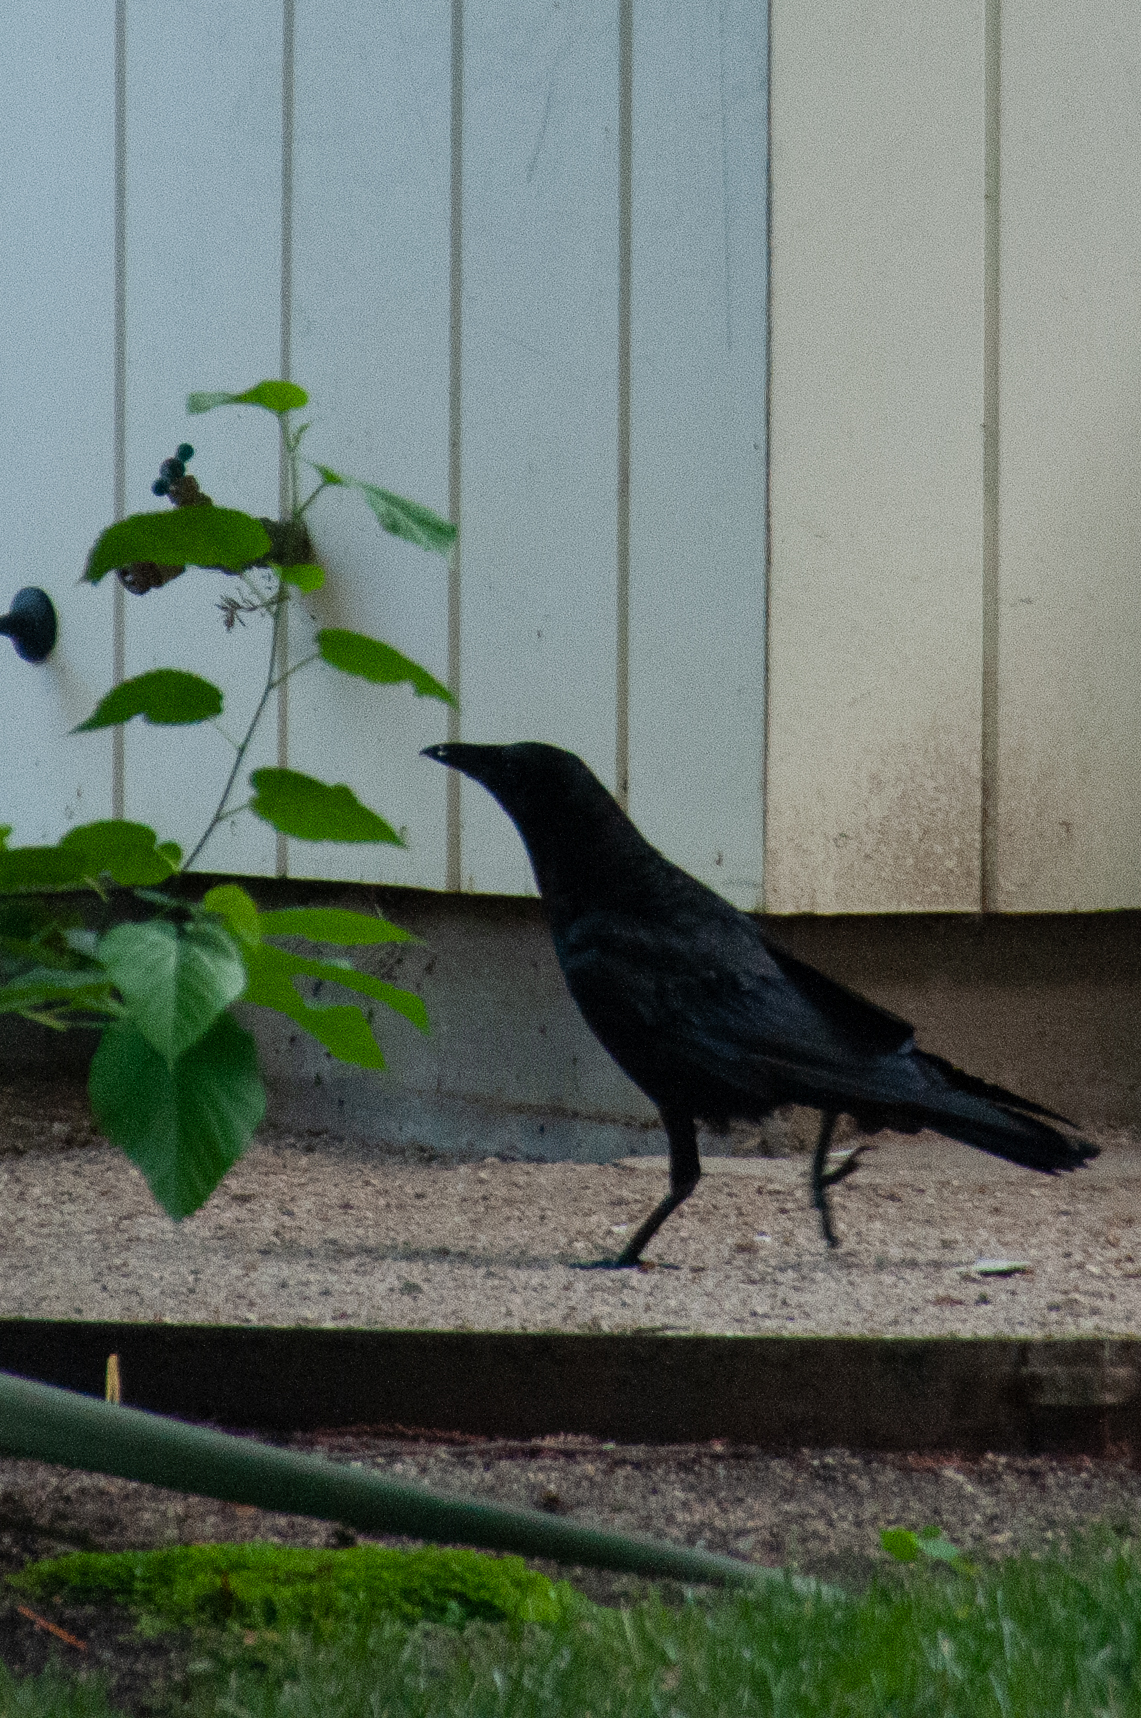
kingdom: Animalia
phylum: Chordata
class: Aves
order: Passeriformes
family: Corvidae
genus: Corvus
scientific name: Corvus brachyrhynchos
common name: American crow
